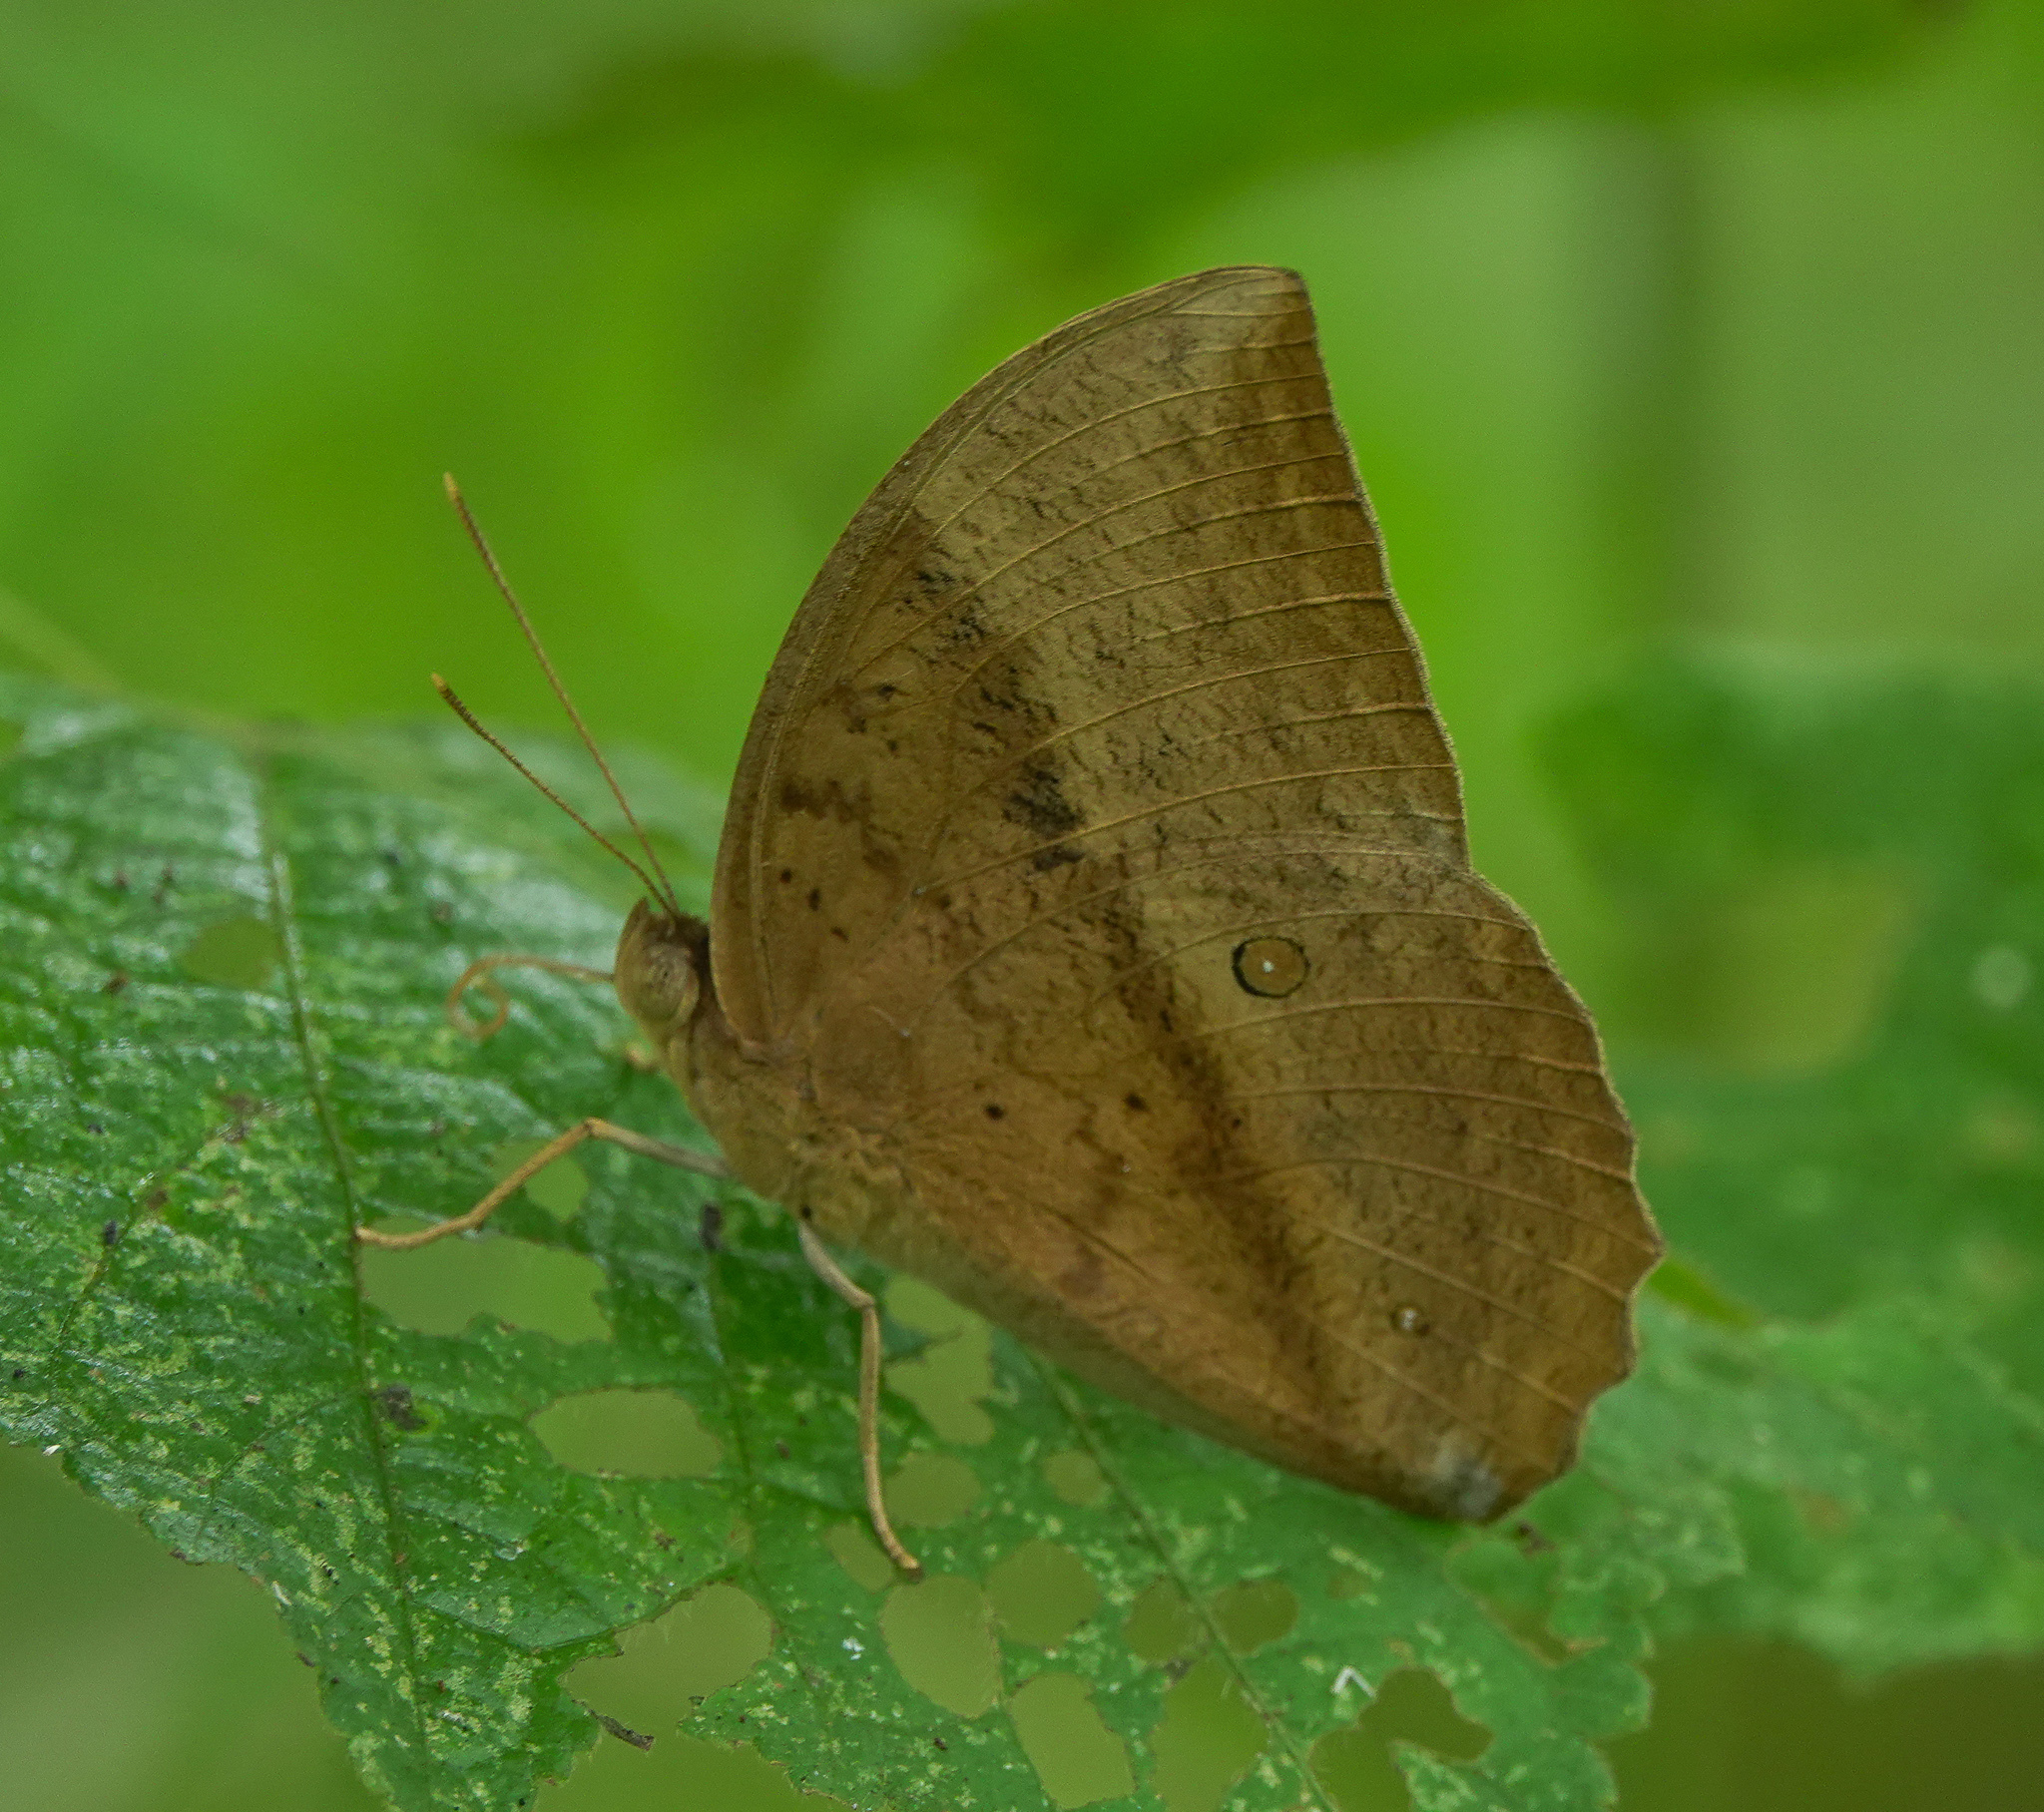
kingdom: Animalia
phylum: Arthropoda
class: Insecta
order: Lepidoptera
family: Nymphalidae
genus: Discophora
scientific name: Discophora sondaica
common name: Common duffer
